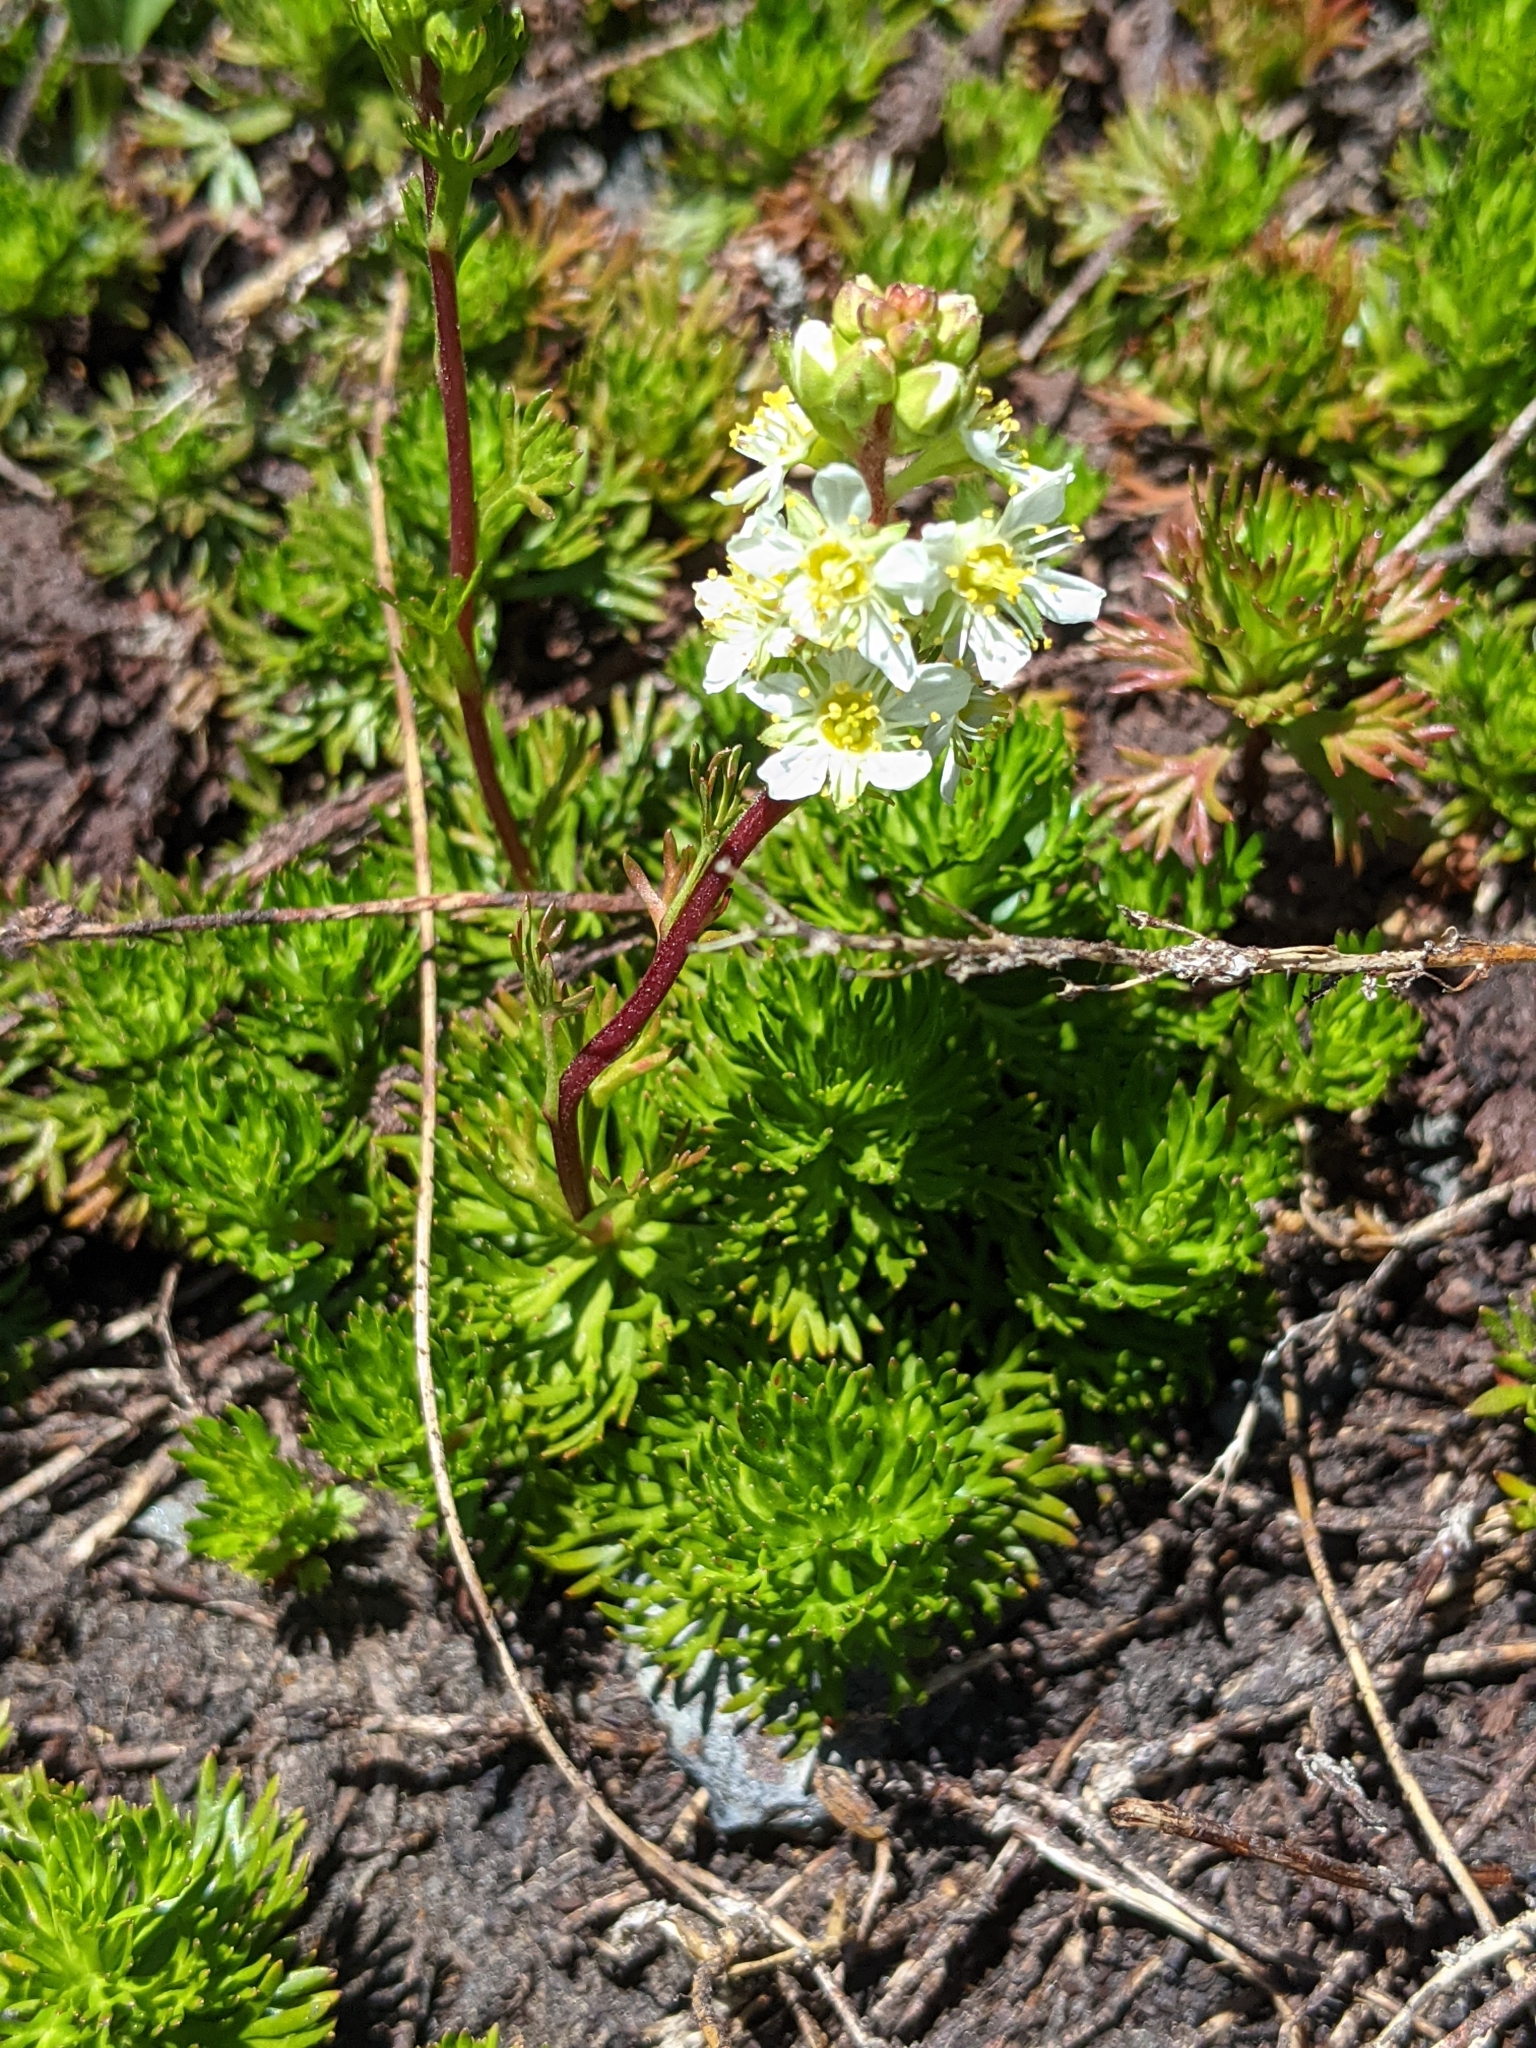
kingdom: Plantae
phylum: Tracheophyta
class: Magnoliopsida
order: Rosales
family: Rosaceae
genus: Luetkea
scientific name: Luetkea pectinata
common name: Partridgefoot
